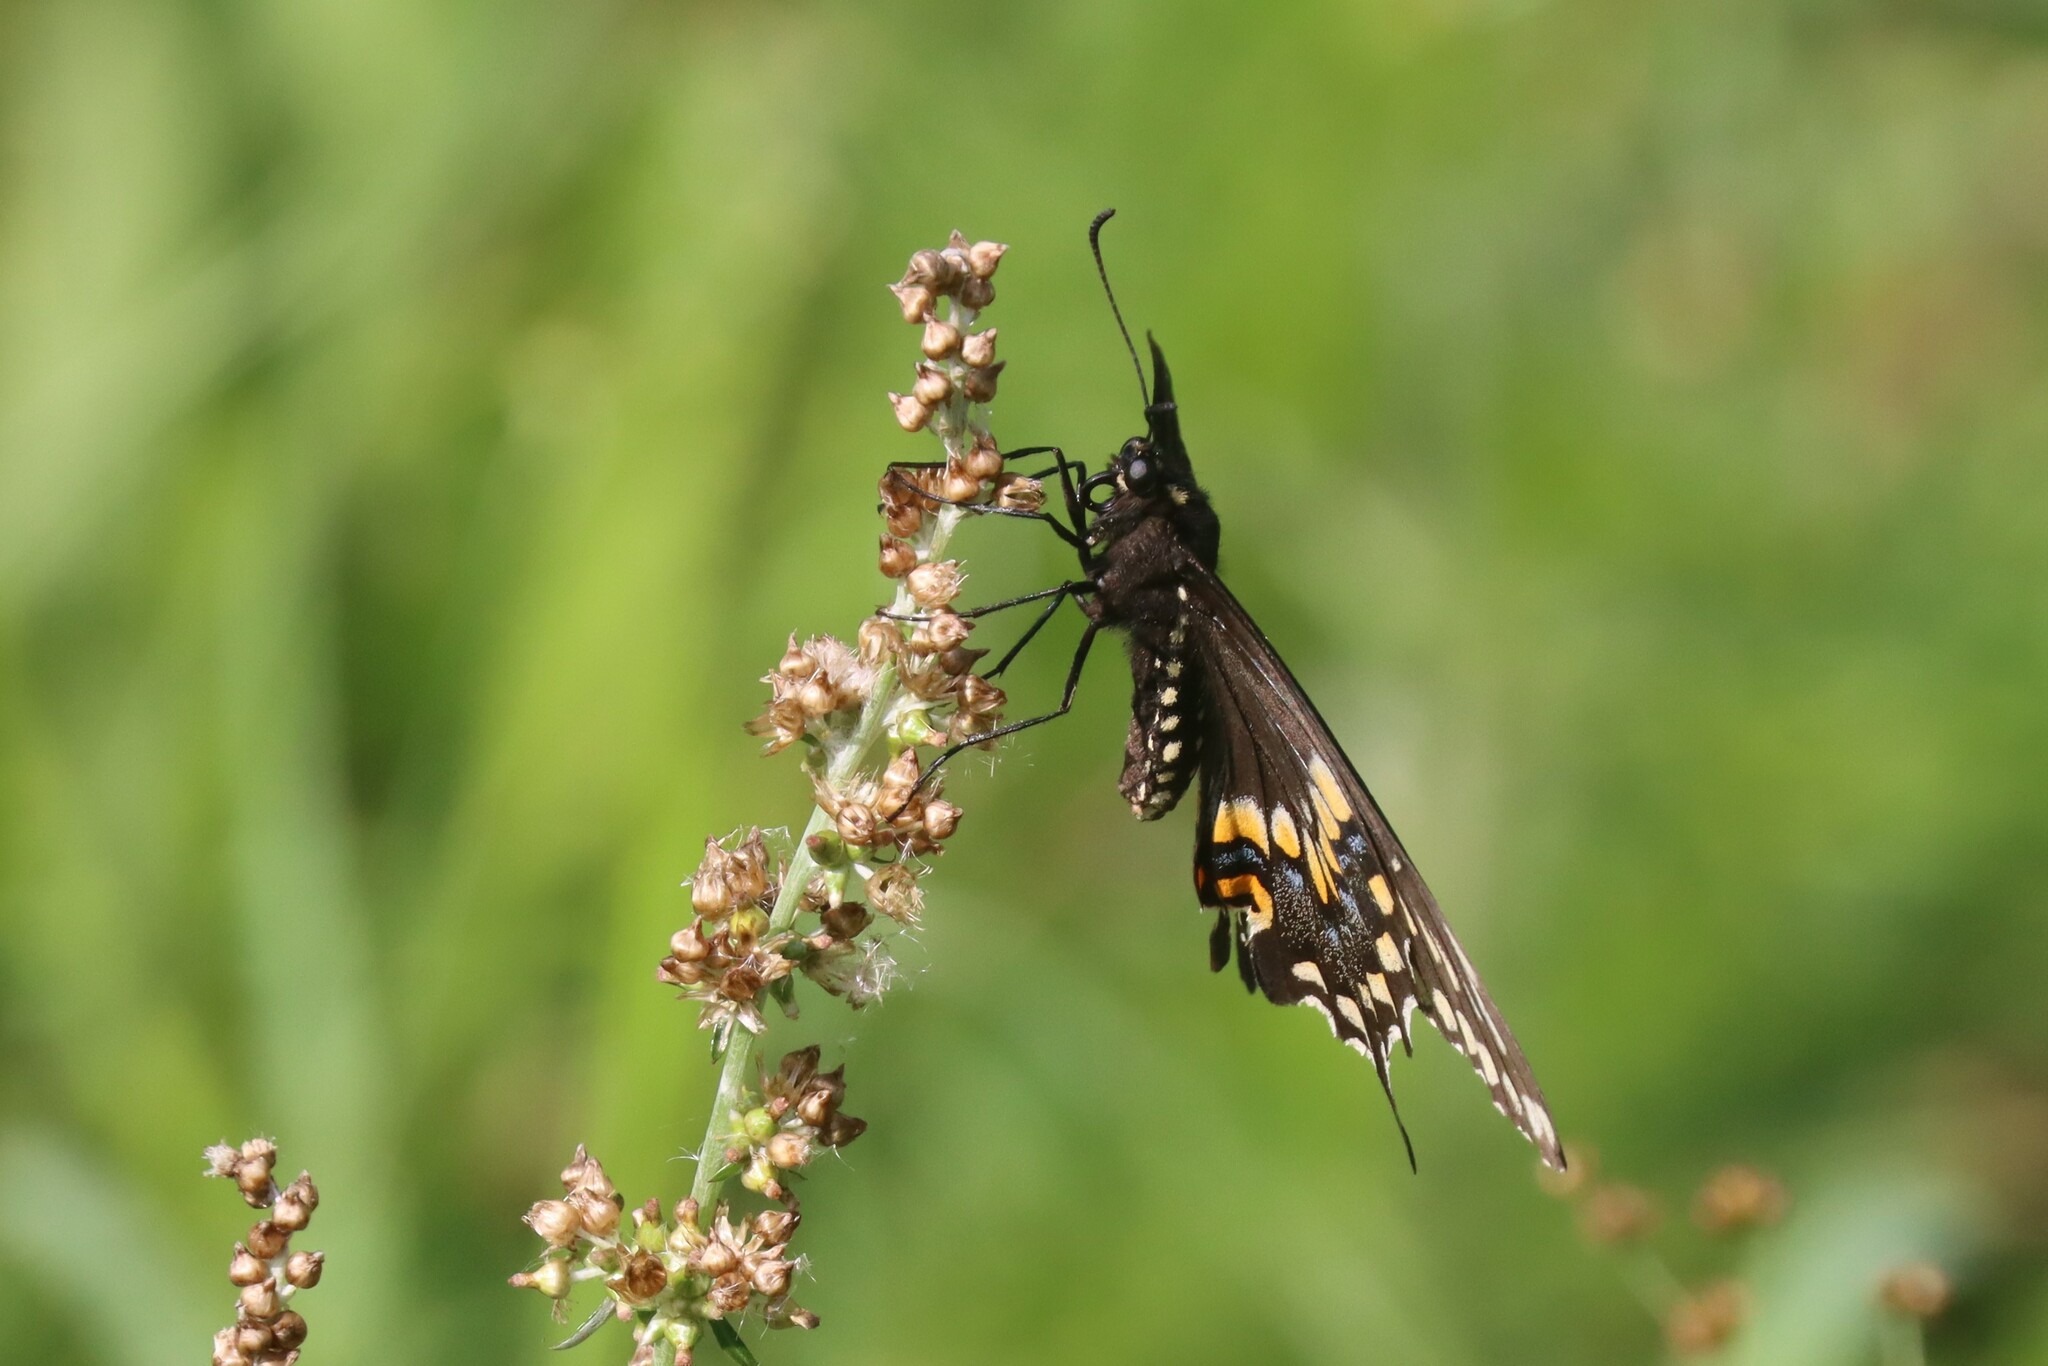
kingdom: Animalia
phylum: Arthropoda
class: Insecta
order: Lepidoptera
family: Papilionidae
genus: Papilio
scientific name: Papilio polyxenes
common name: Black swallowtail
